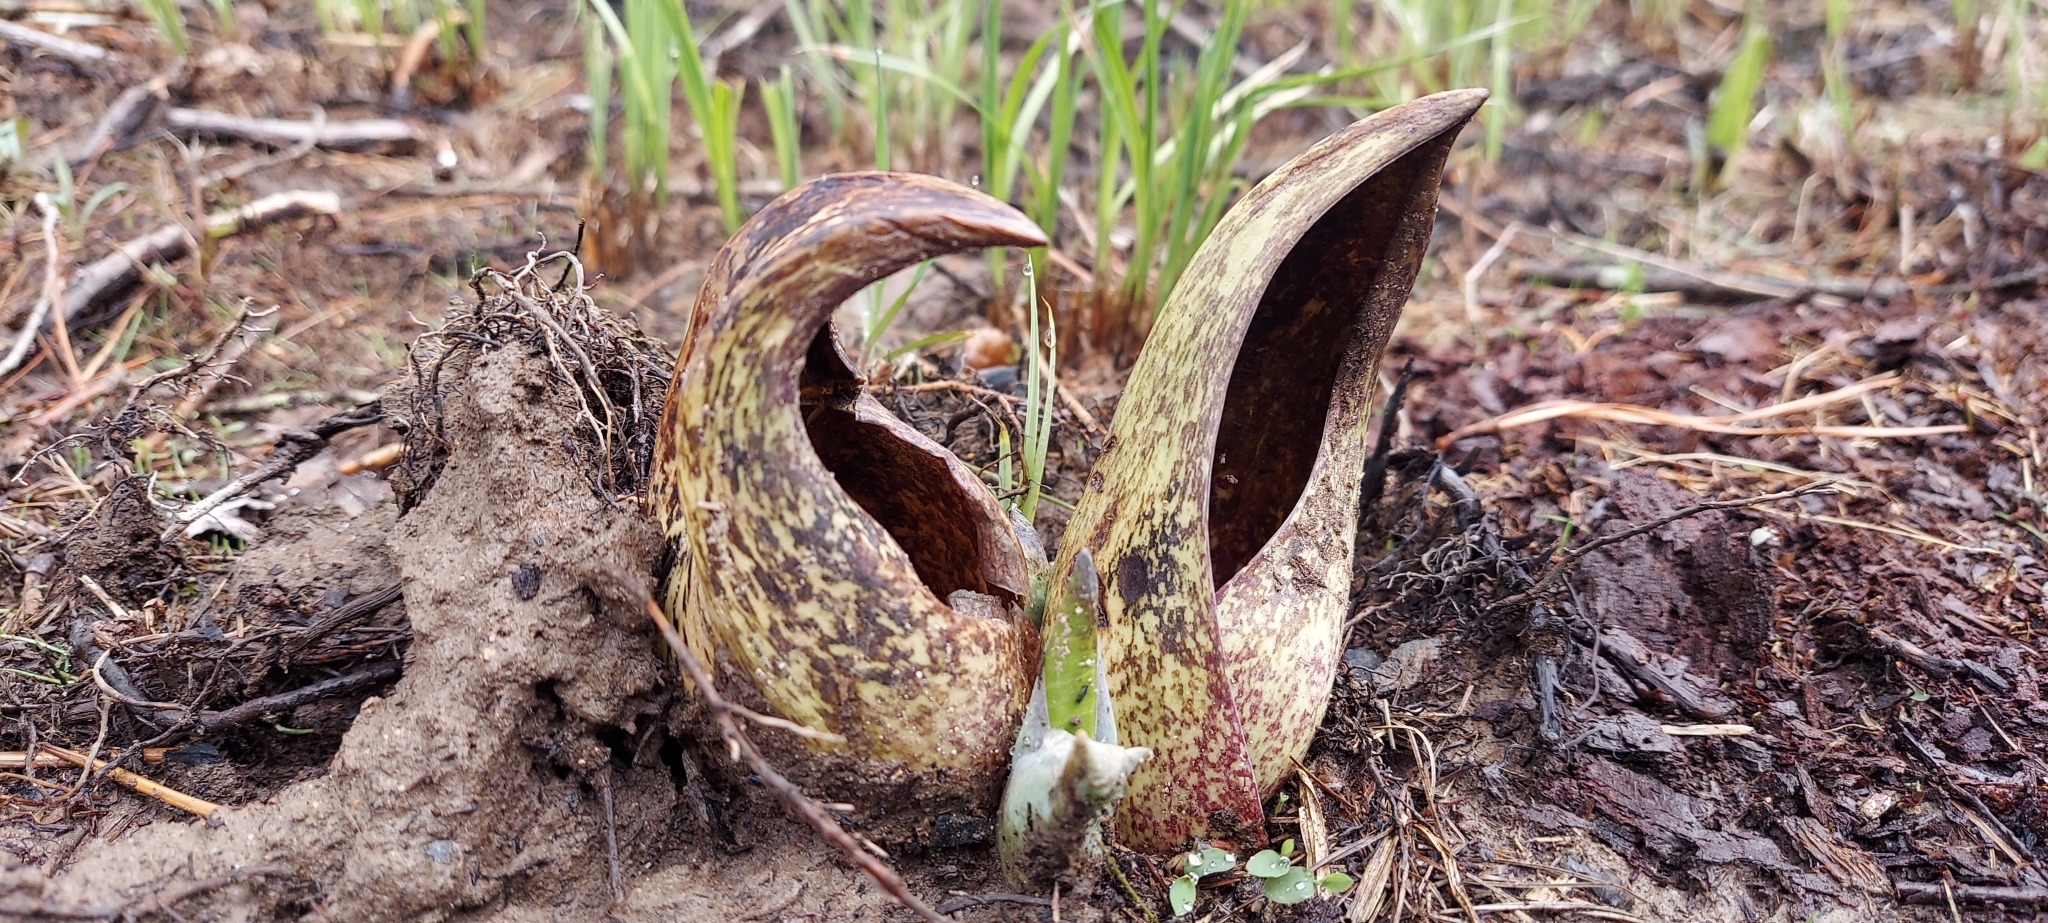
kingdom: Plantae
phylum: Tracheophyta
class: Liliopsida
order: Alismatales
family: Araceae
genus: Symplocarpus
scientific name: Symplocarpus foetidus
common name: Eastern skunk cabbage
